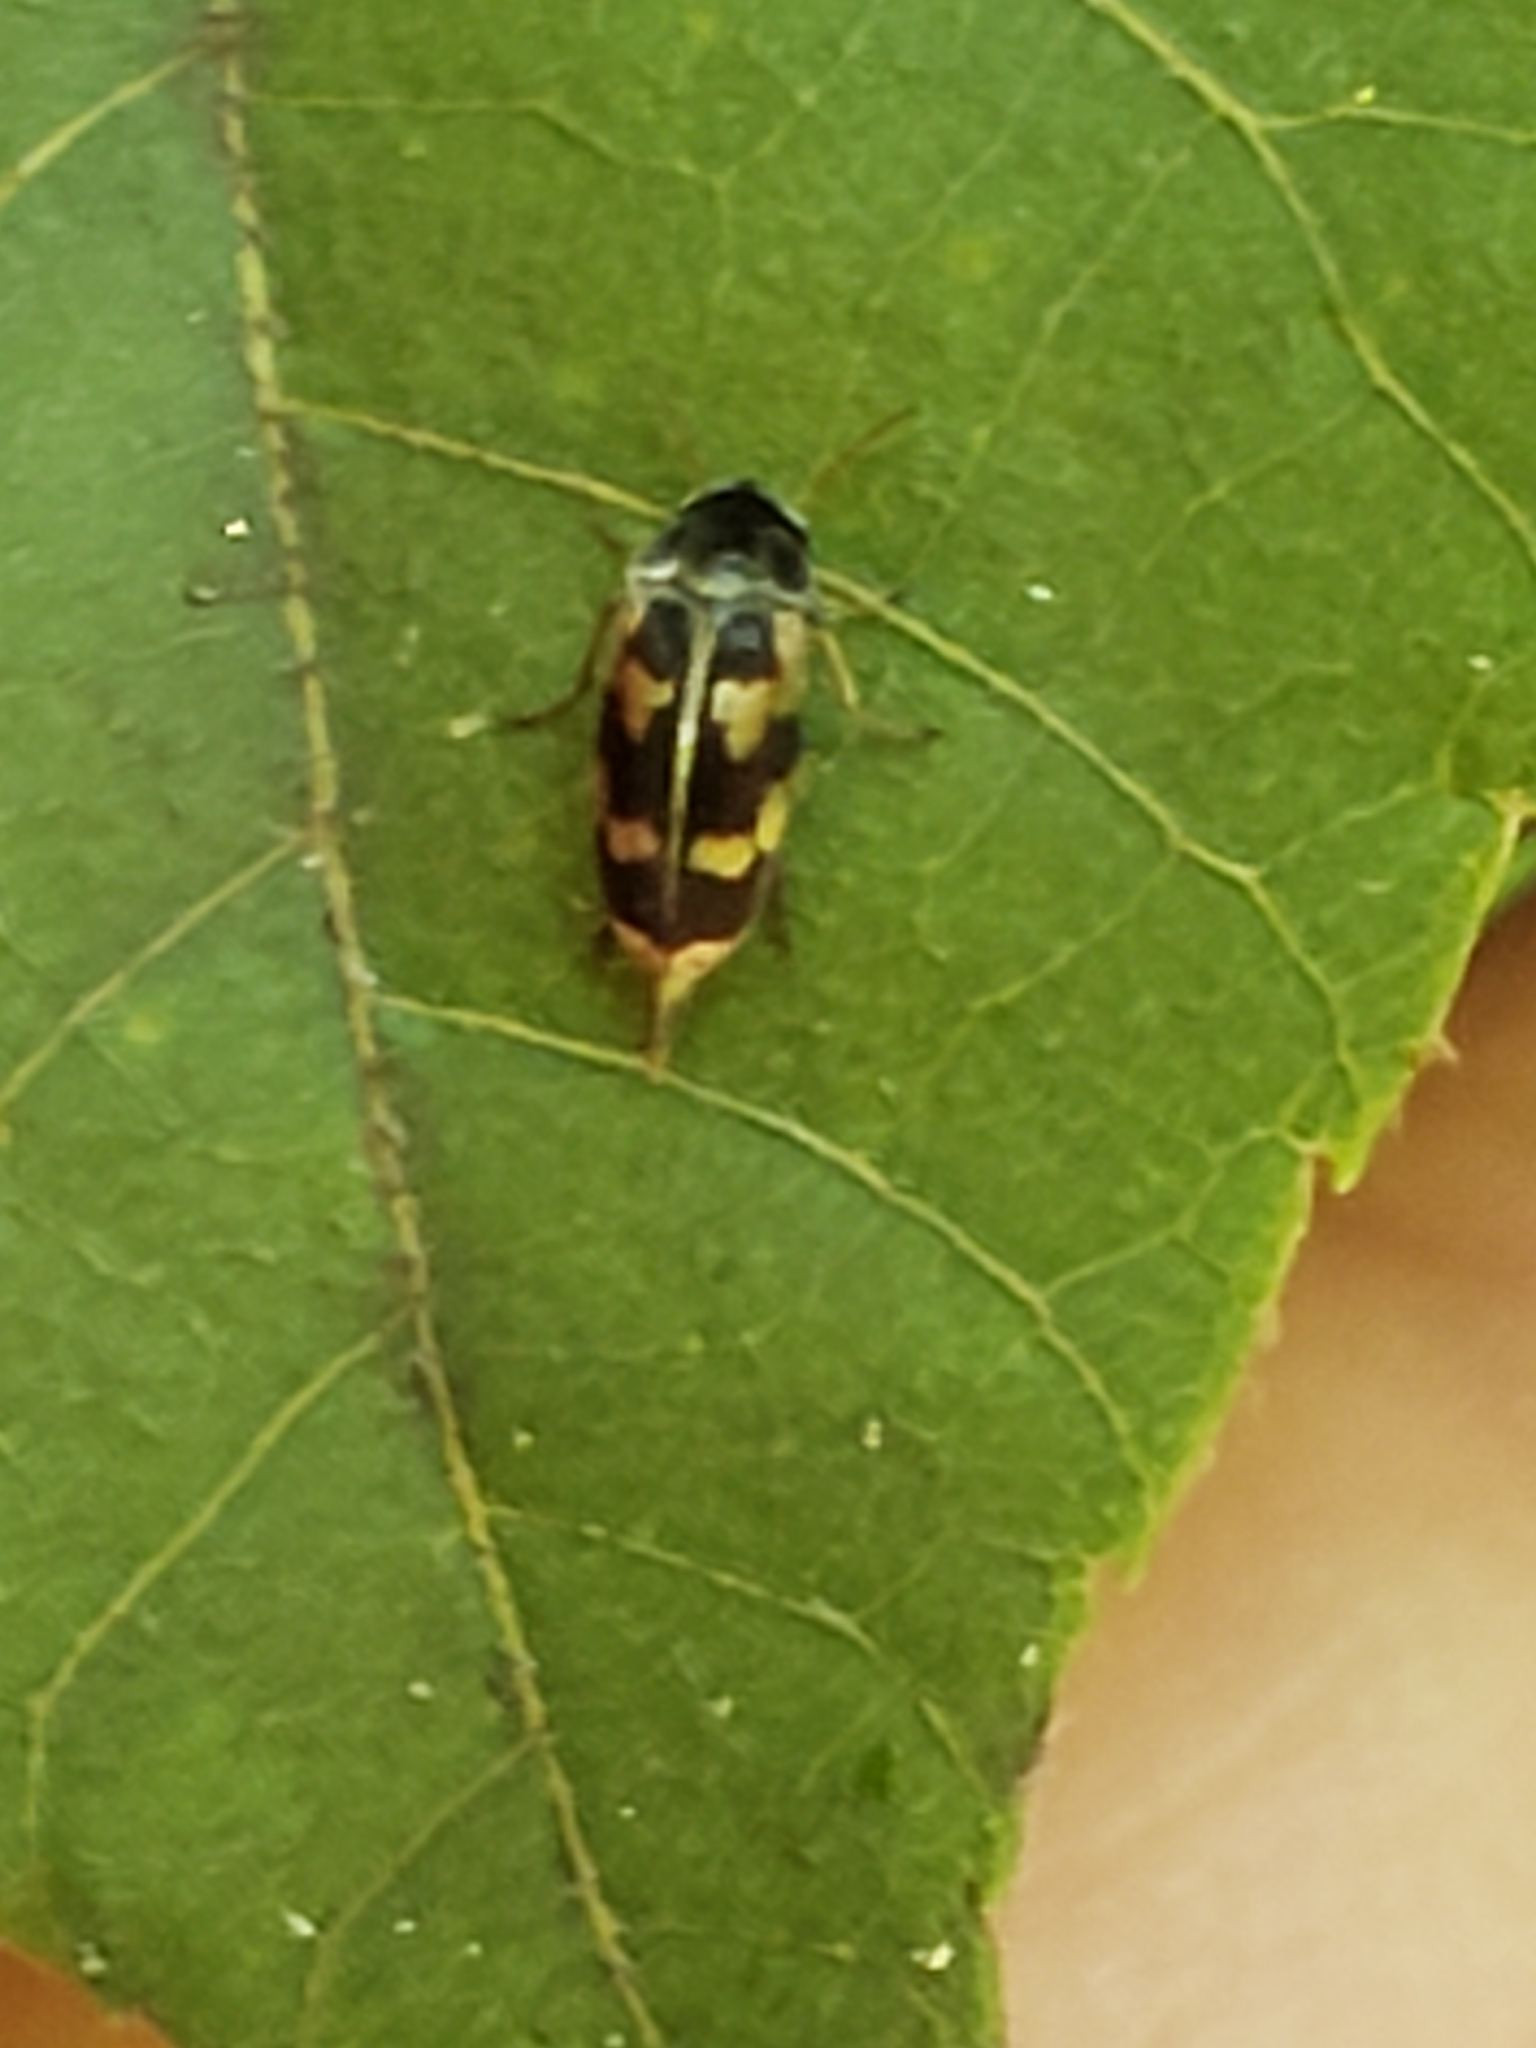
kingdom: Animalia
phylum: Arthropoda
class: Insecta
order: Coleoptera
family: Mordellidae
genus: Falsomordellistena
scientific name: Falsomordellistena pubescens
